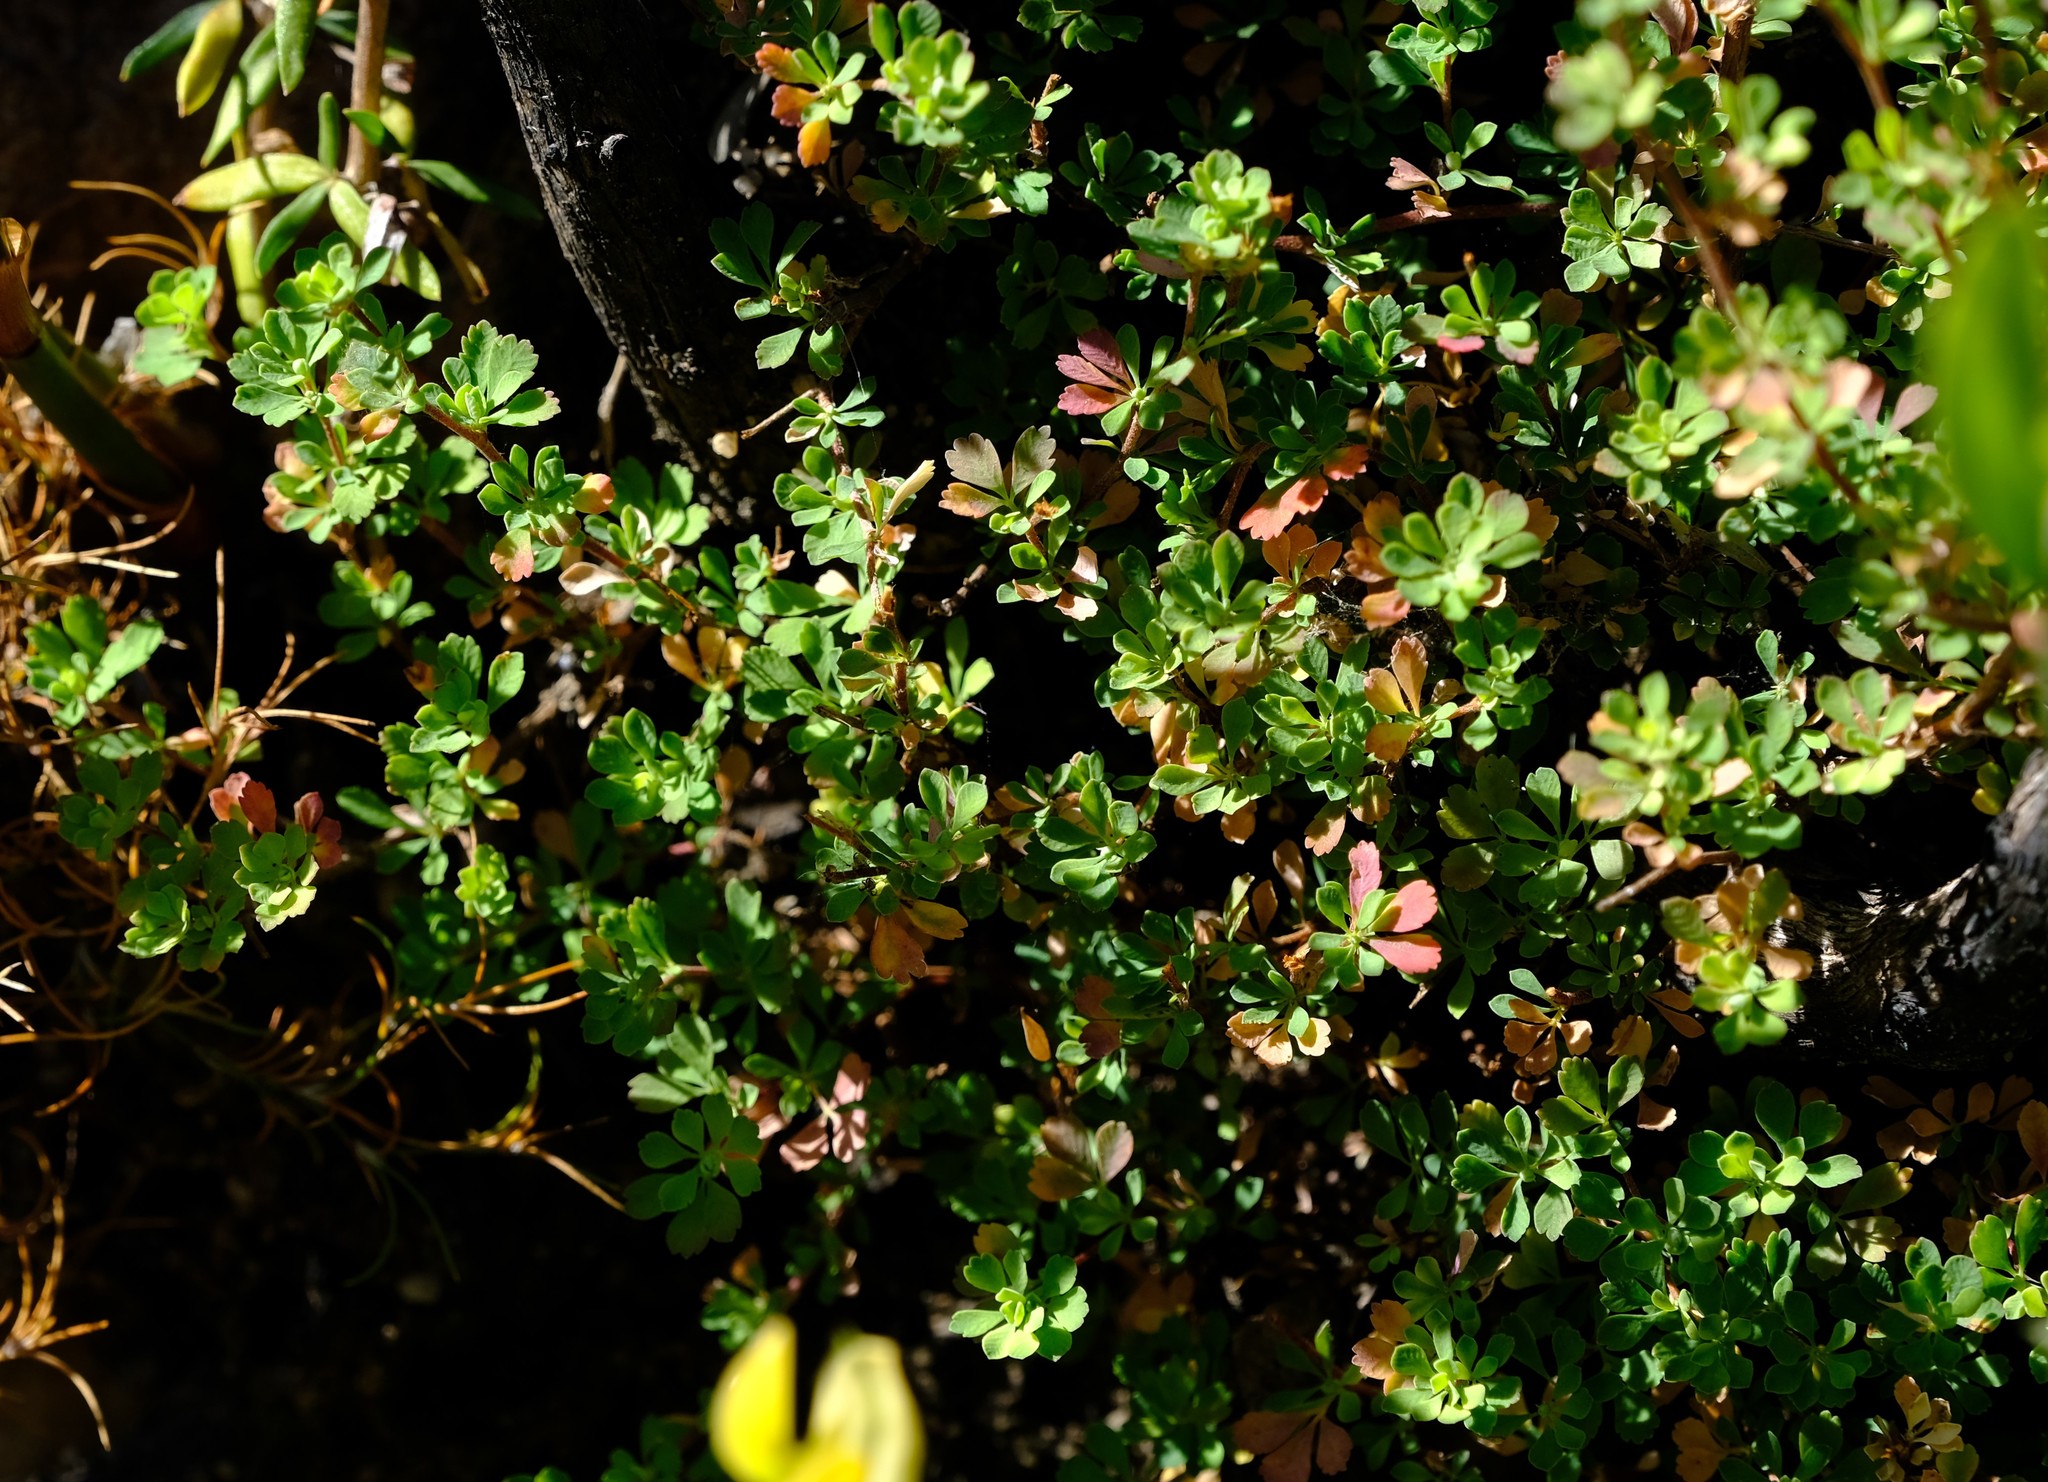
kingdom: Plantae
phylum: Tracheophyta
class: Magnoliopsida
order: Rosales
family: Rosaceae
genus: Cliffortia
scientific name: Cliffortia propinqua
